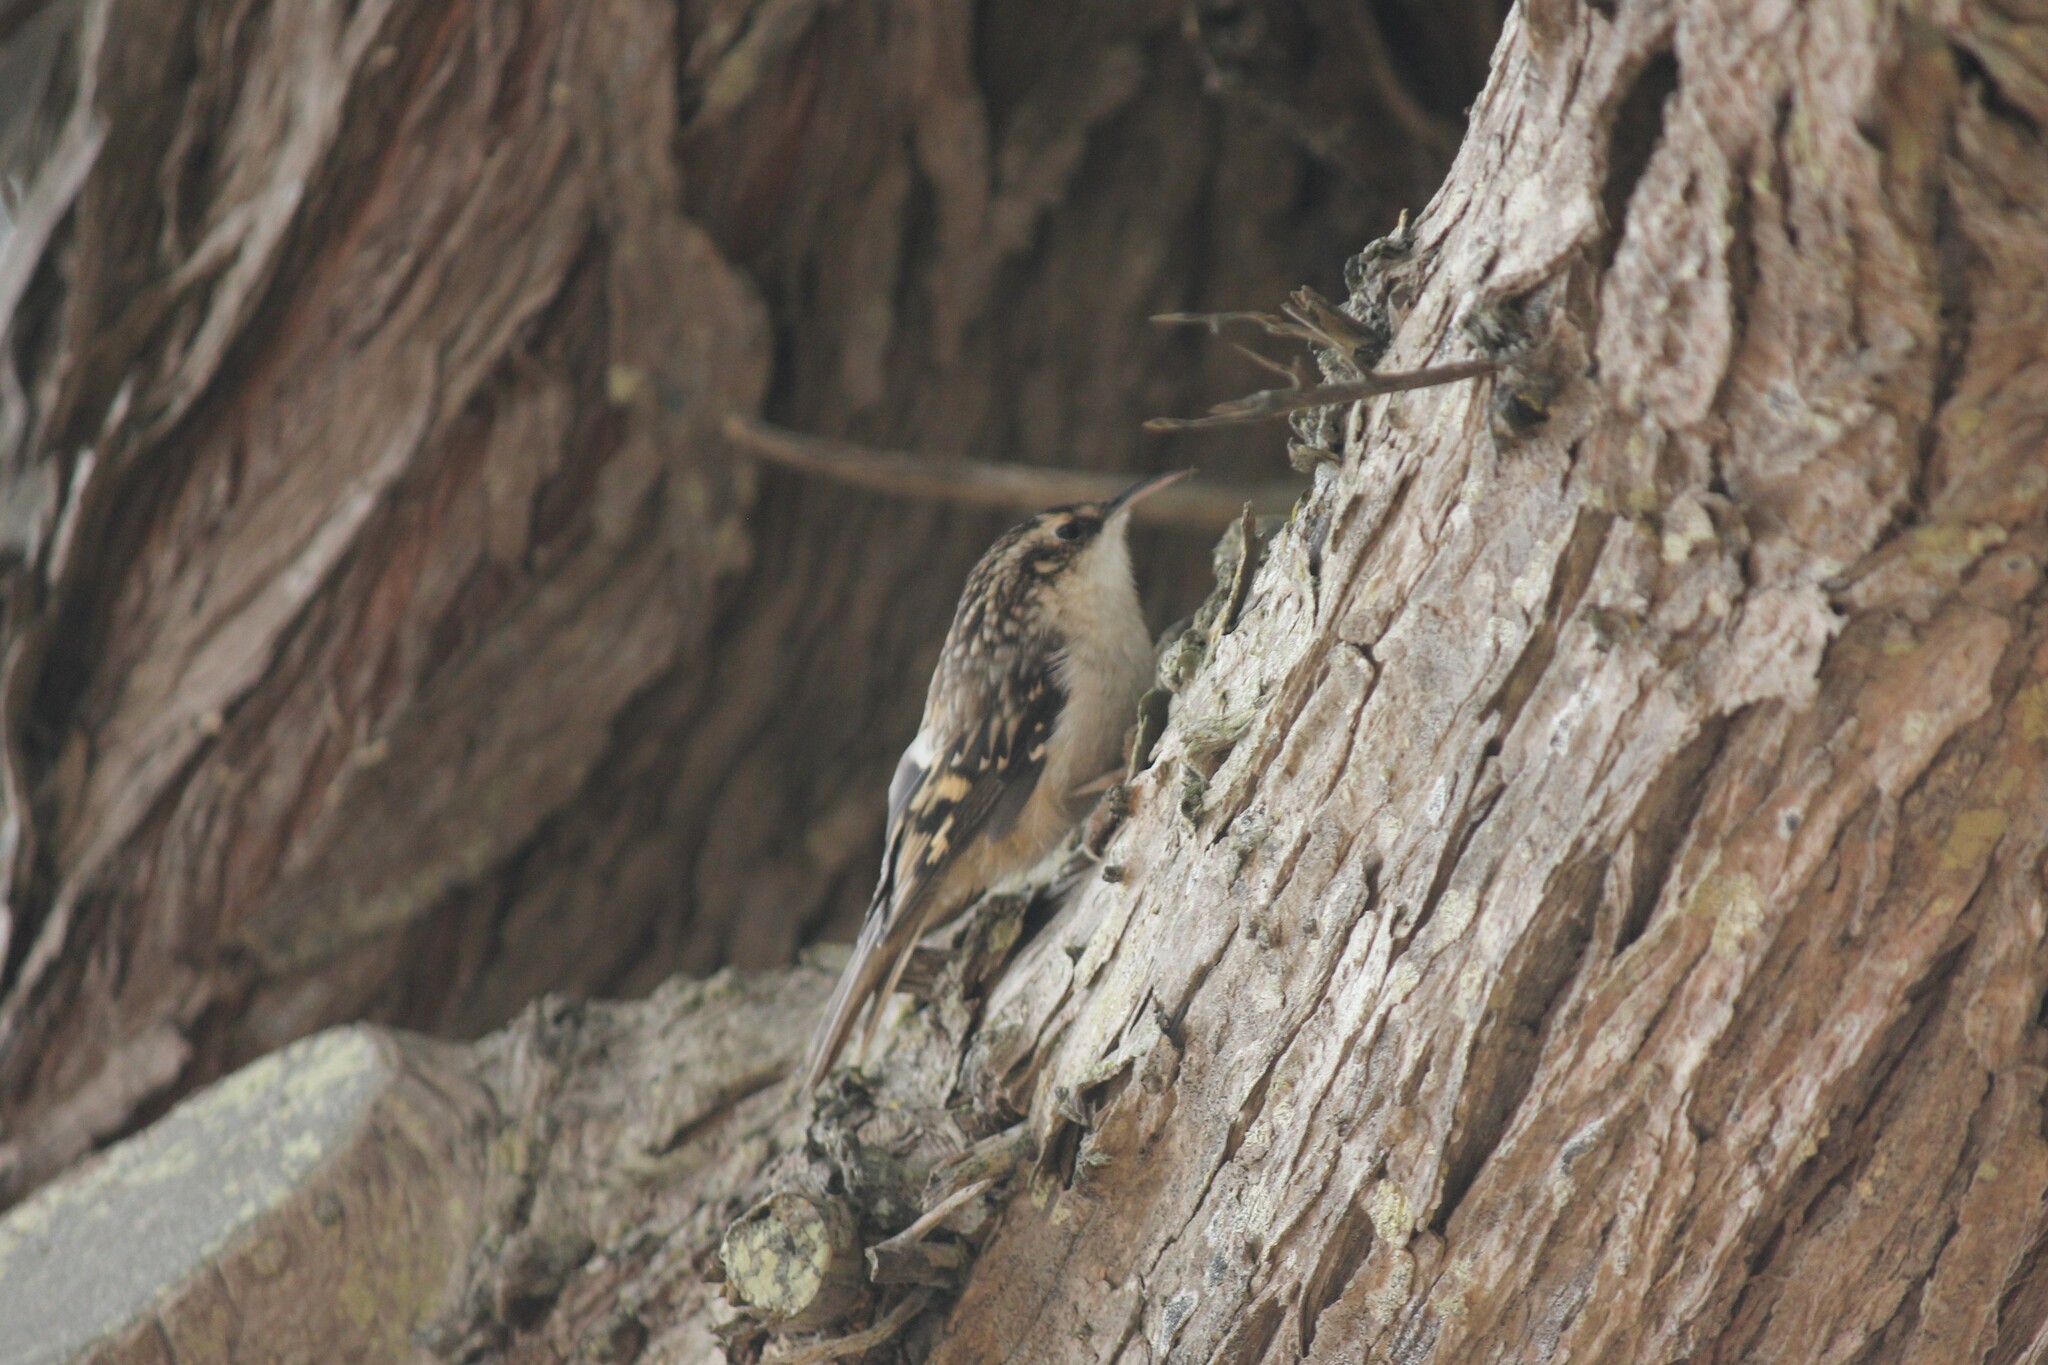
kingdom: Animalia
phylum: Chordata
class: Aves
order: Passeriformes
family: Certhiidae
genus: Certhia
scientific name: Certhia americana
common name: Brown creeper
